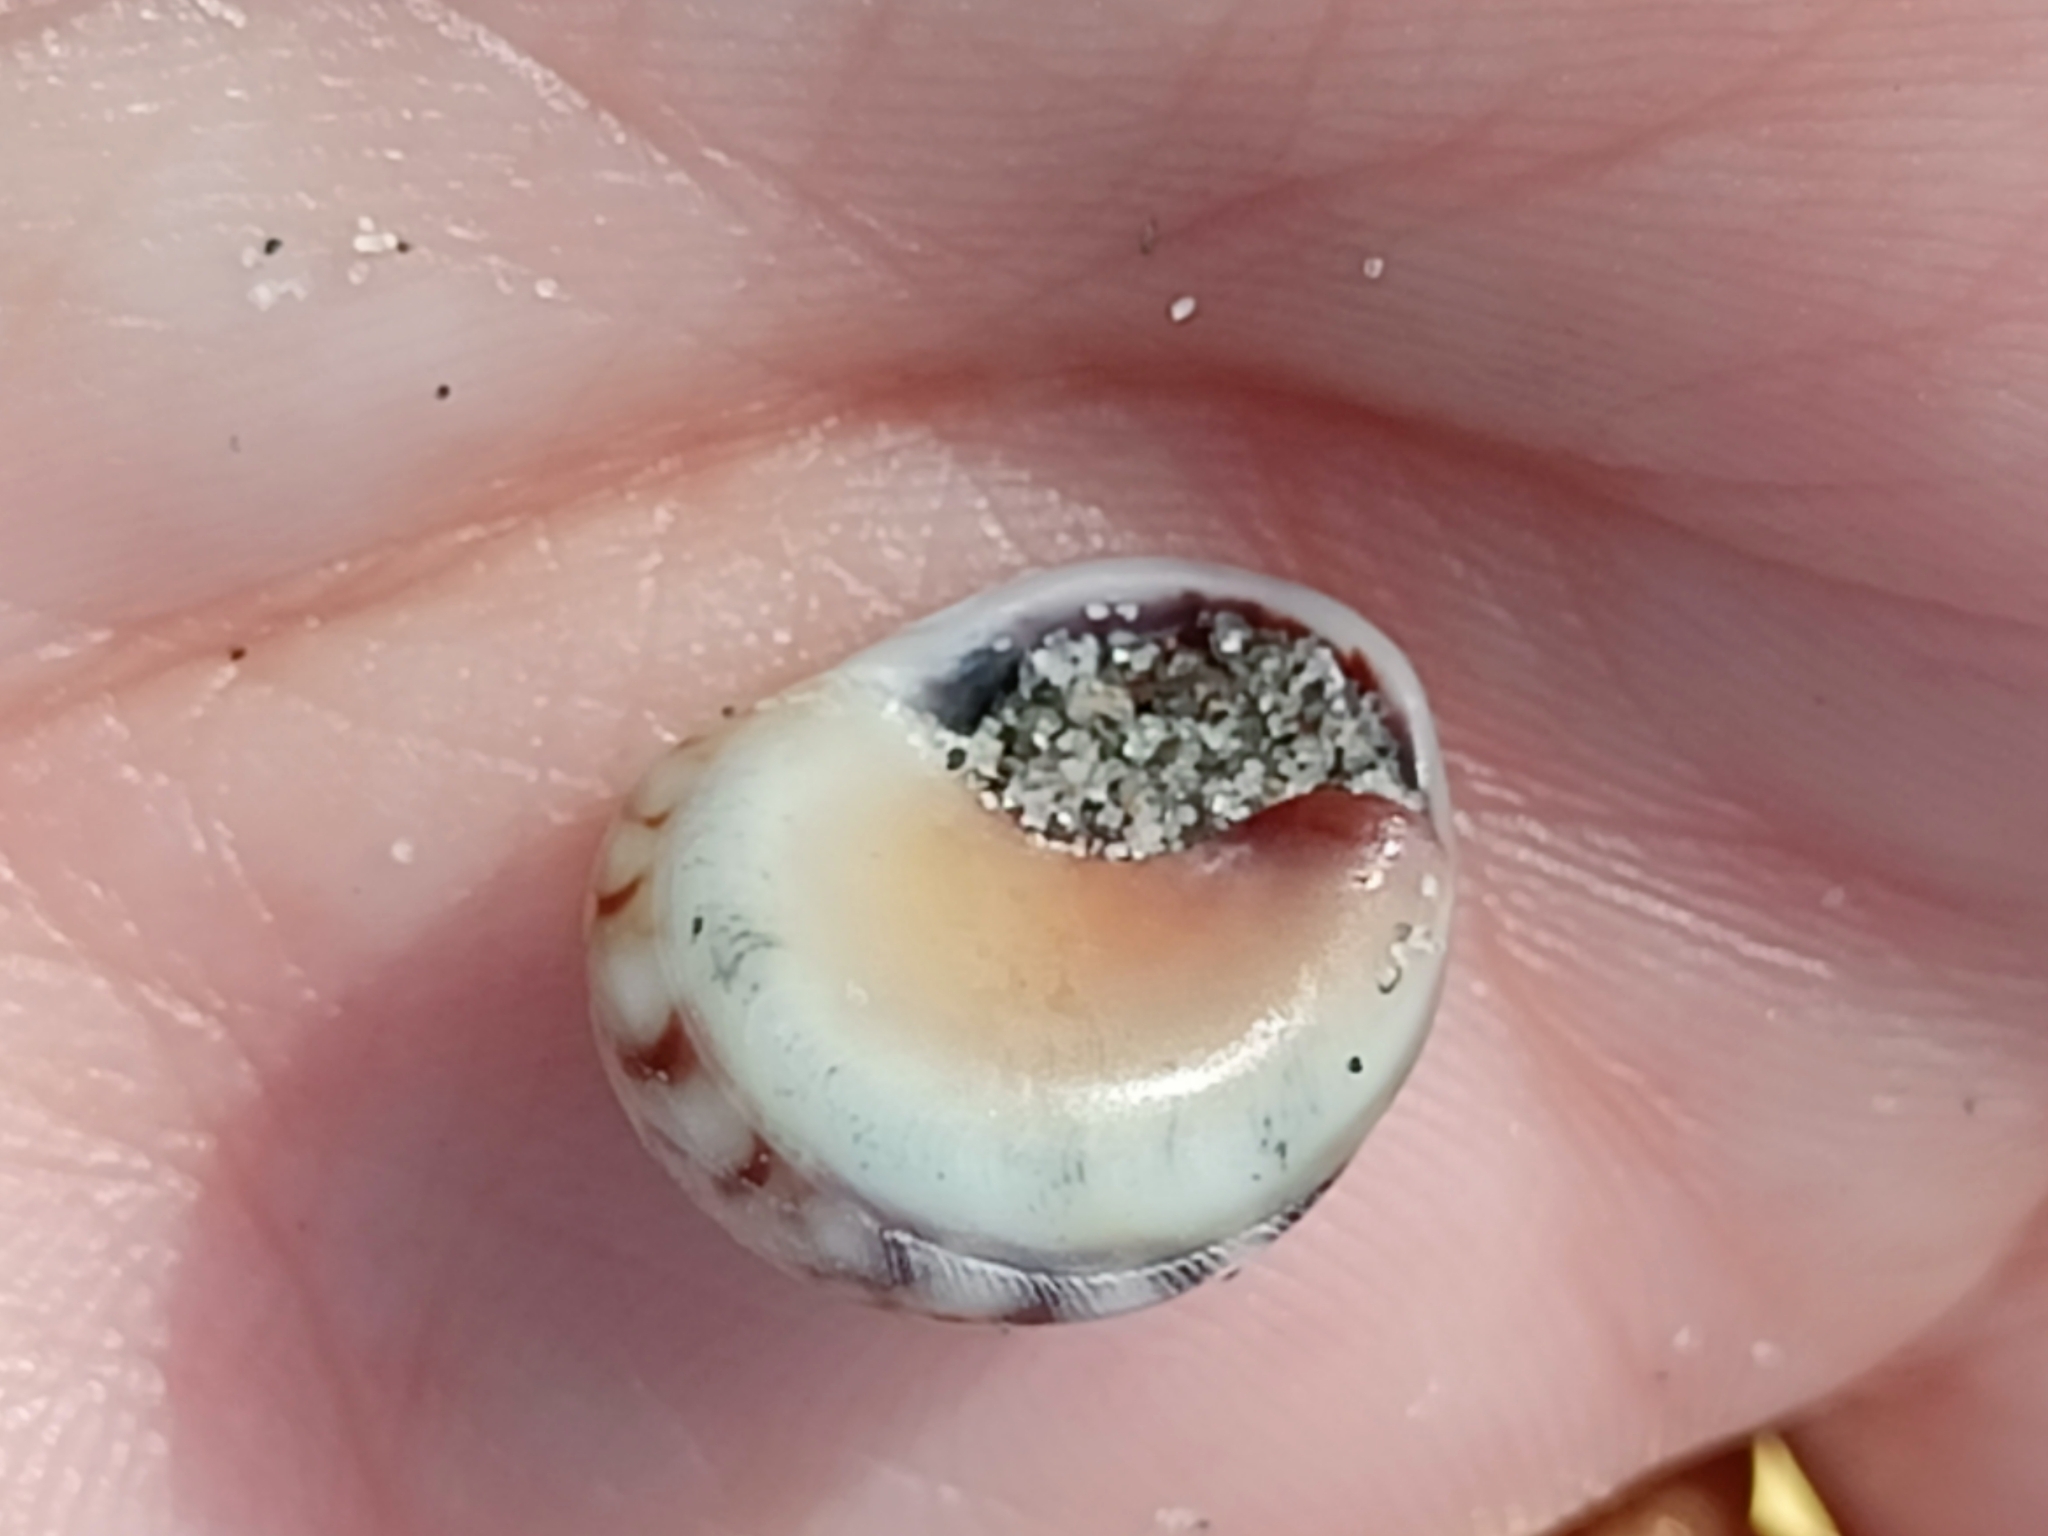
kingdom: Animalia
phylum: Mollusca
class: Gastropoda
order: Neogastropoda
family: Nassariidae
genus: Tritia
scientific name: Tritia neritea
